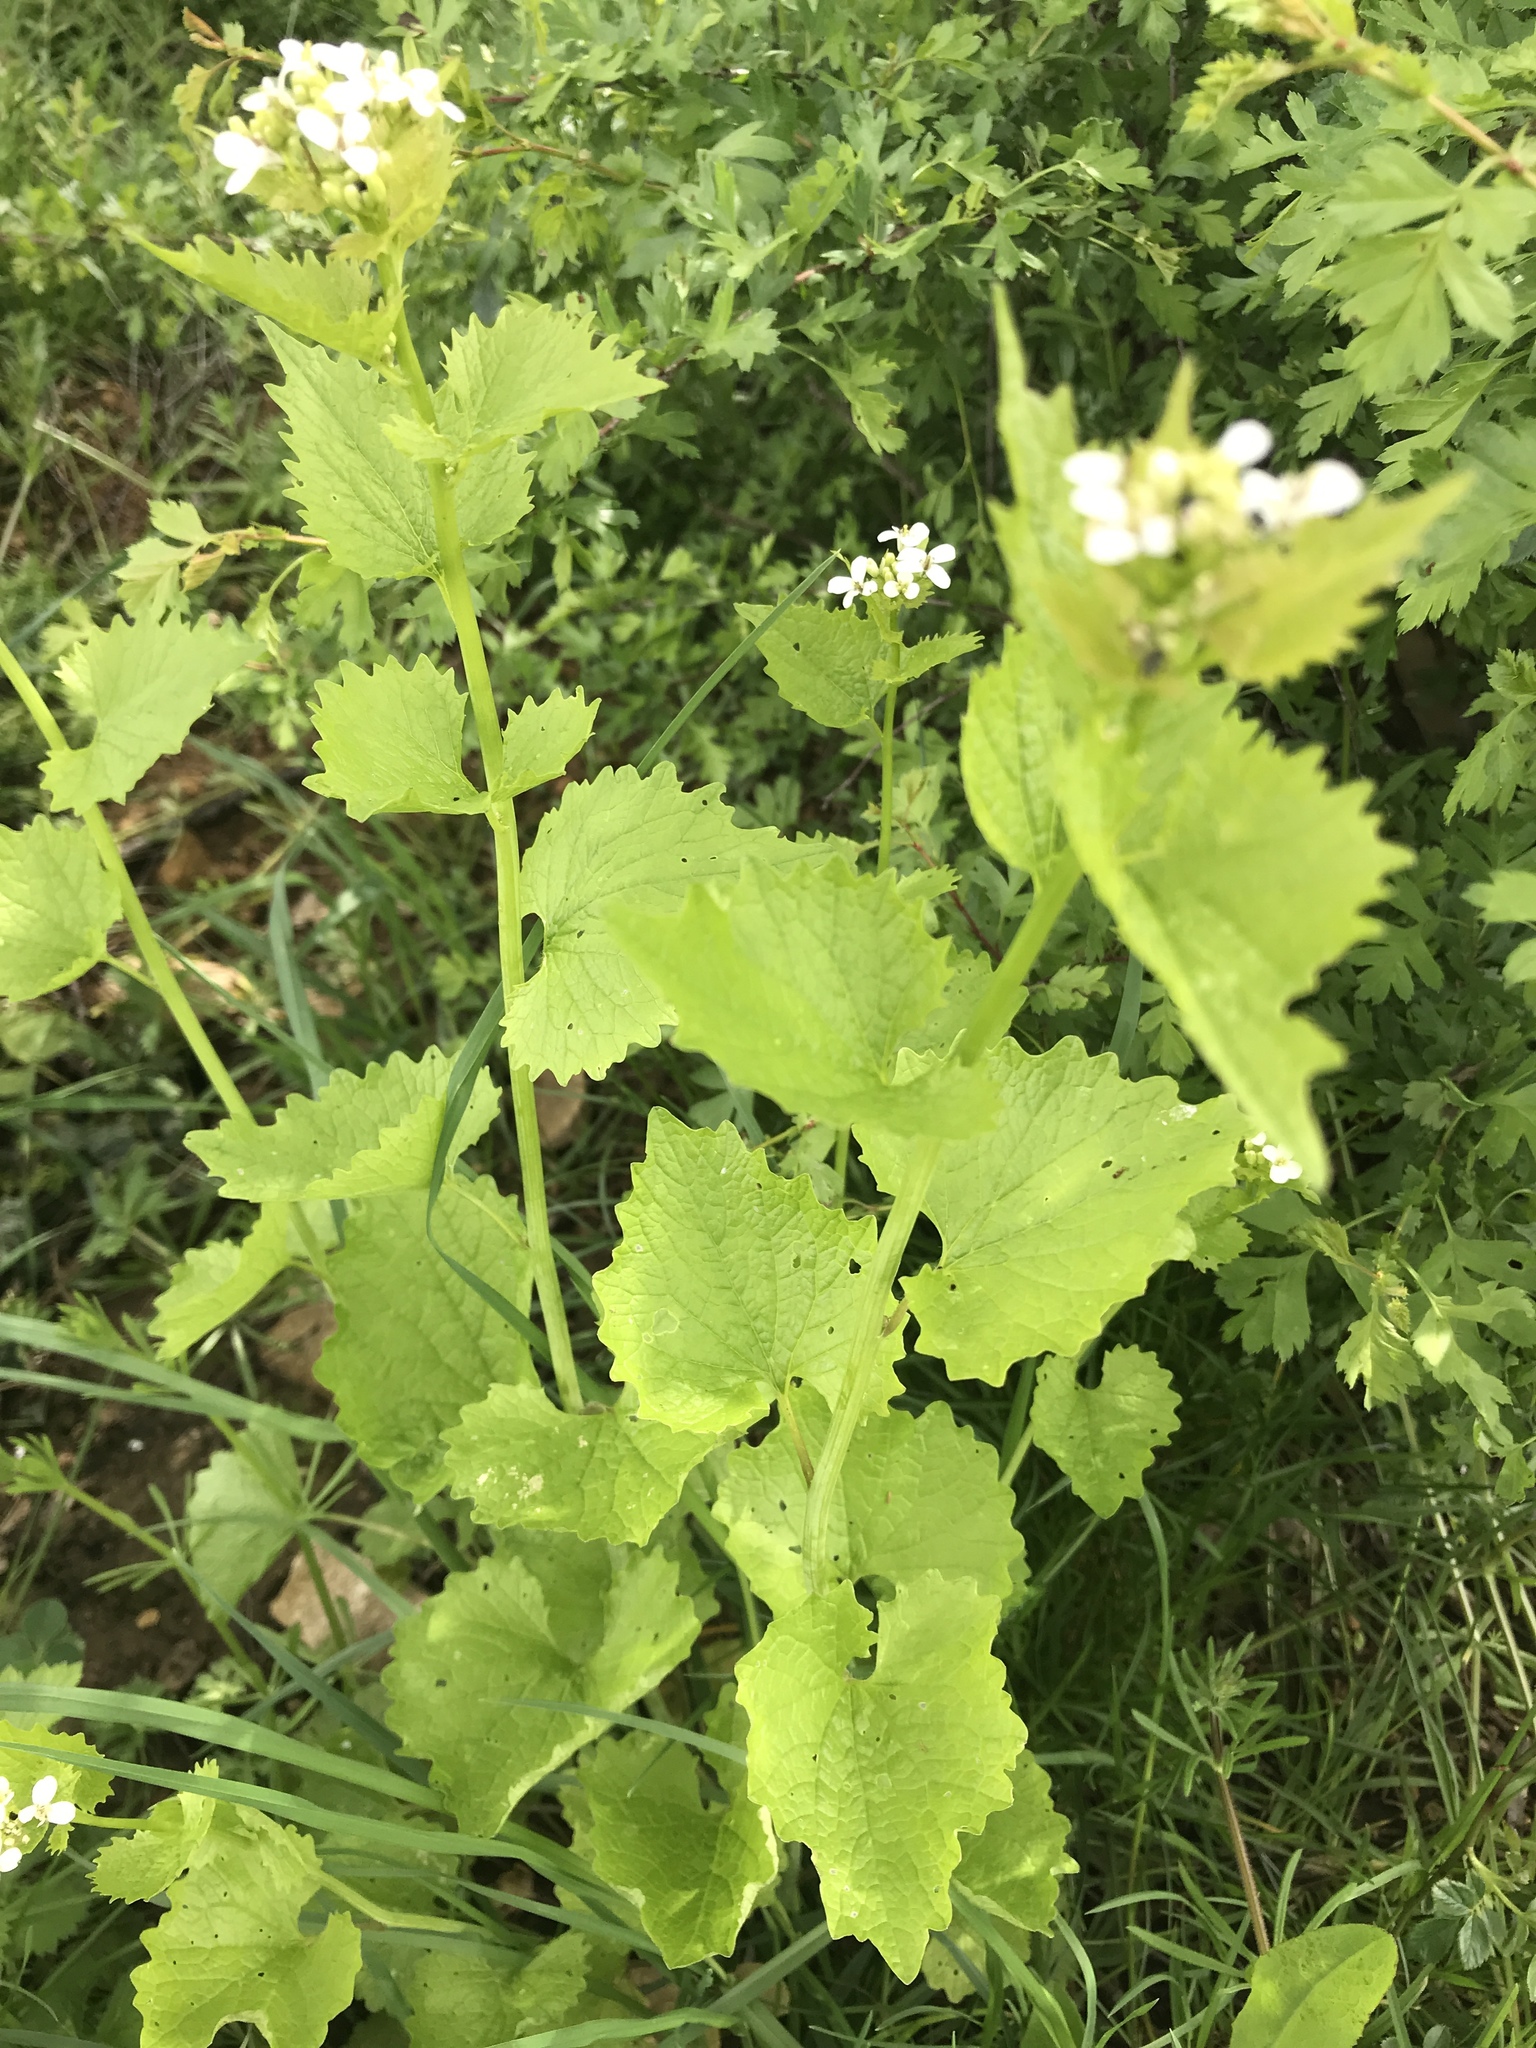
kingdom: Plantae
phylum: Tracheophyta
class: Magnoliopsida
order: Brassicales
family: Brassicaceae
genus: Alliaria
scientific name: Alliaria petiolata
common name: Garlic mustard
